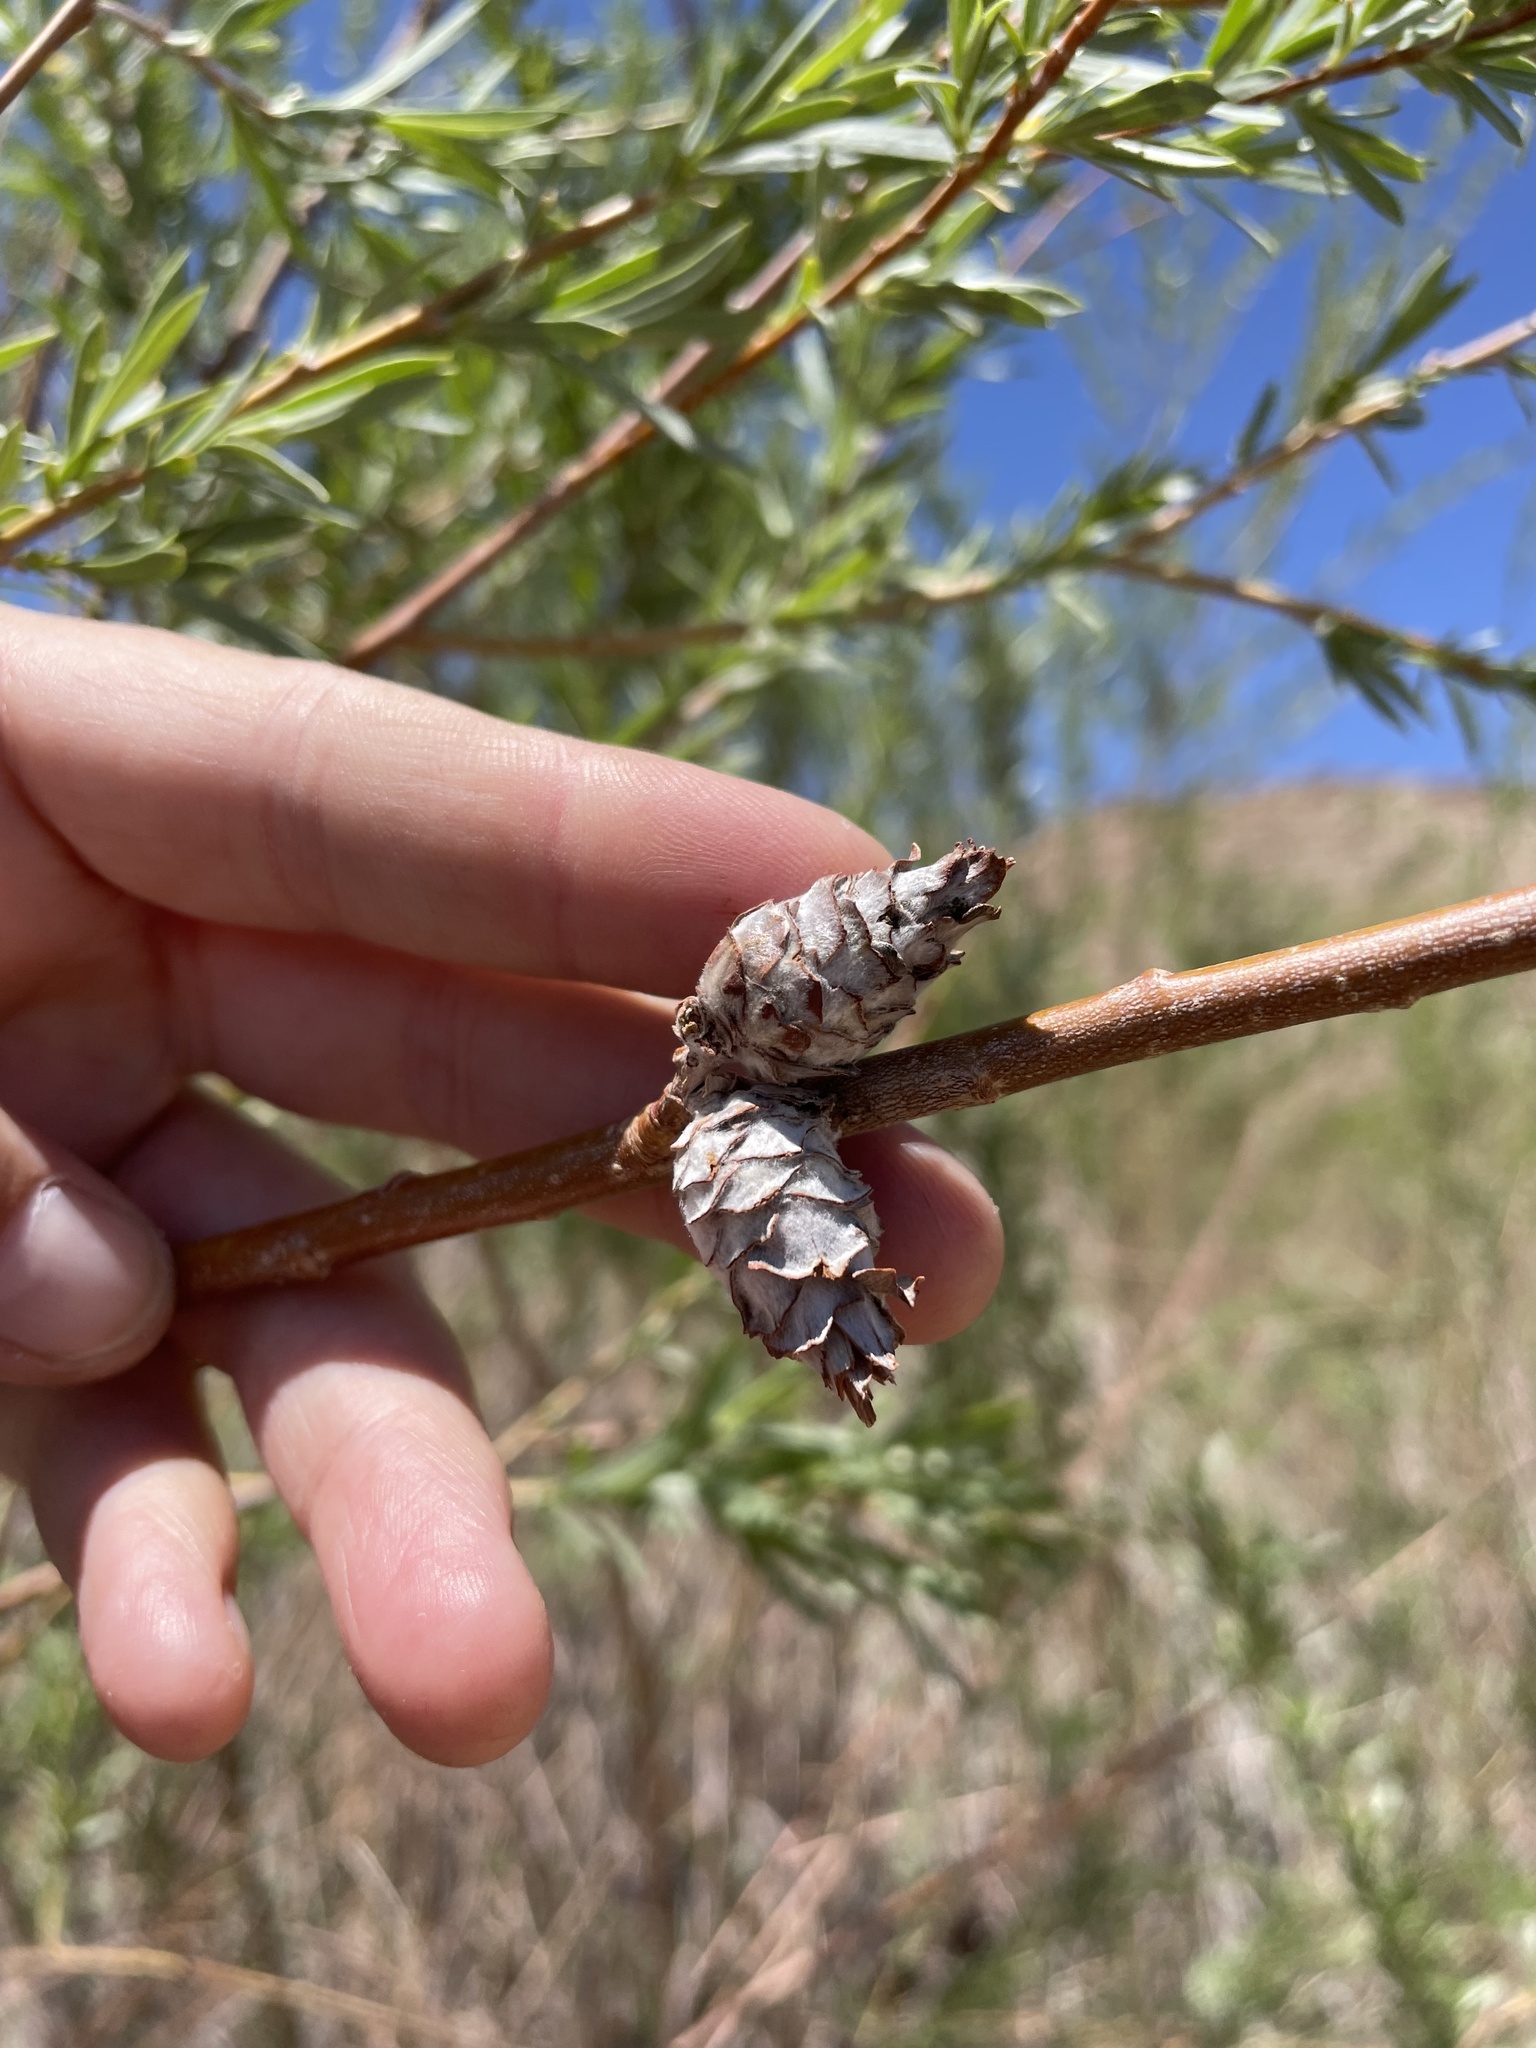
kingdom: Animalia
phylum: Arthropoda
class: Insecta
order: Diptera
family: Cecidomyiidae
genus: Rabdophaga
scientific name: Rabdophaga strobiloides
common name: Willow pinecone gall midge
